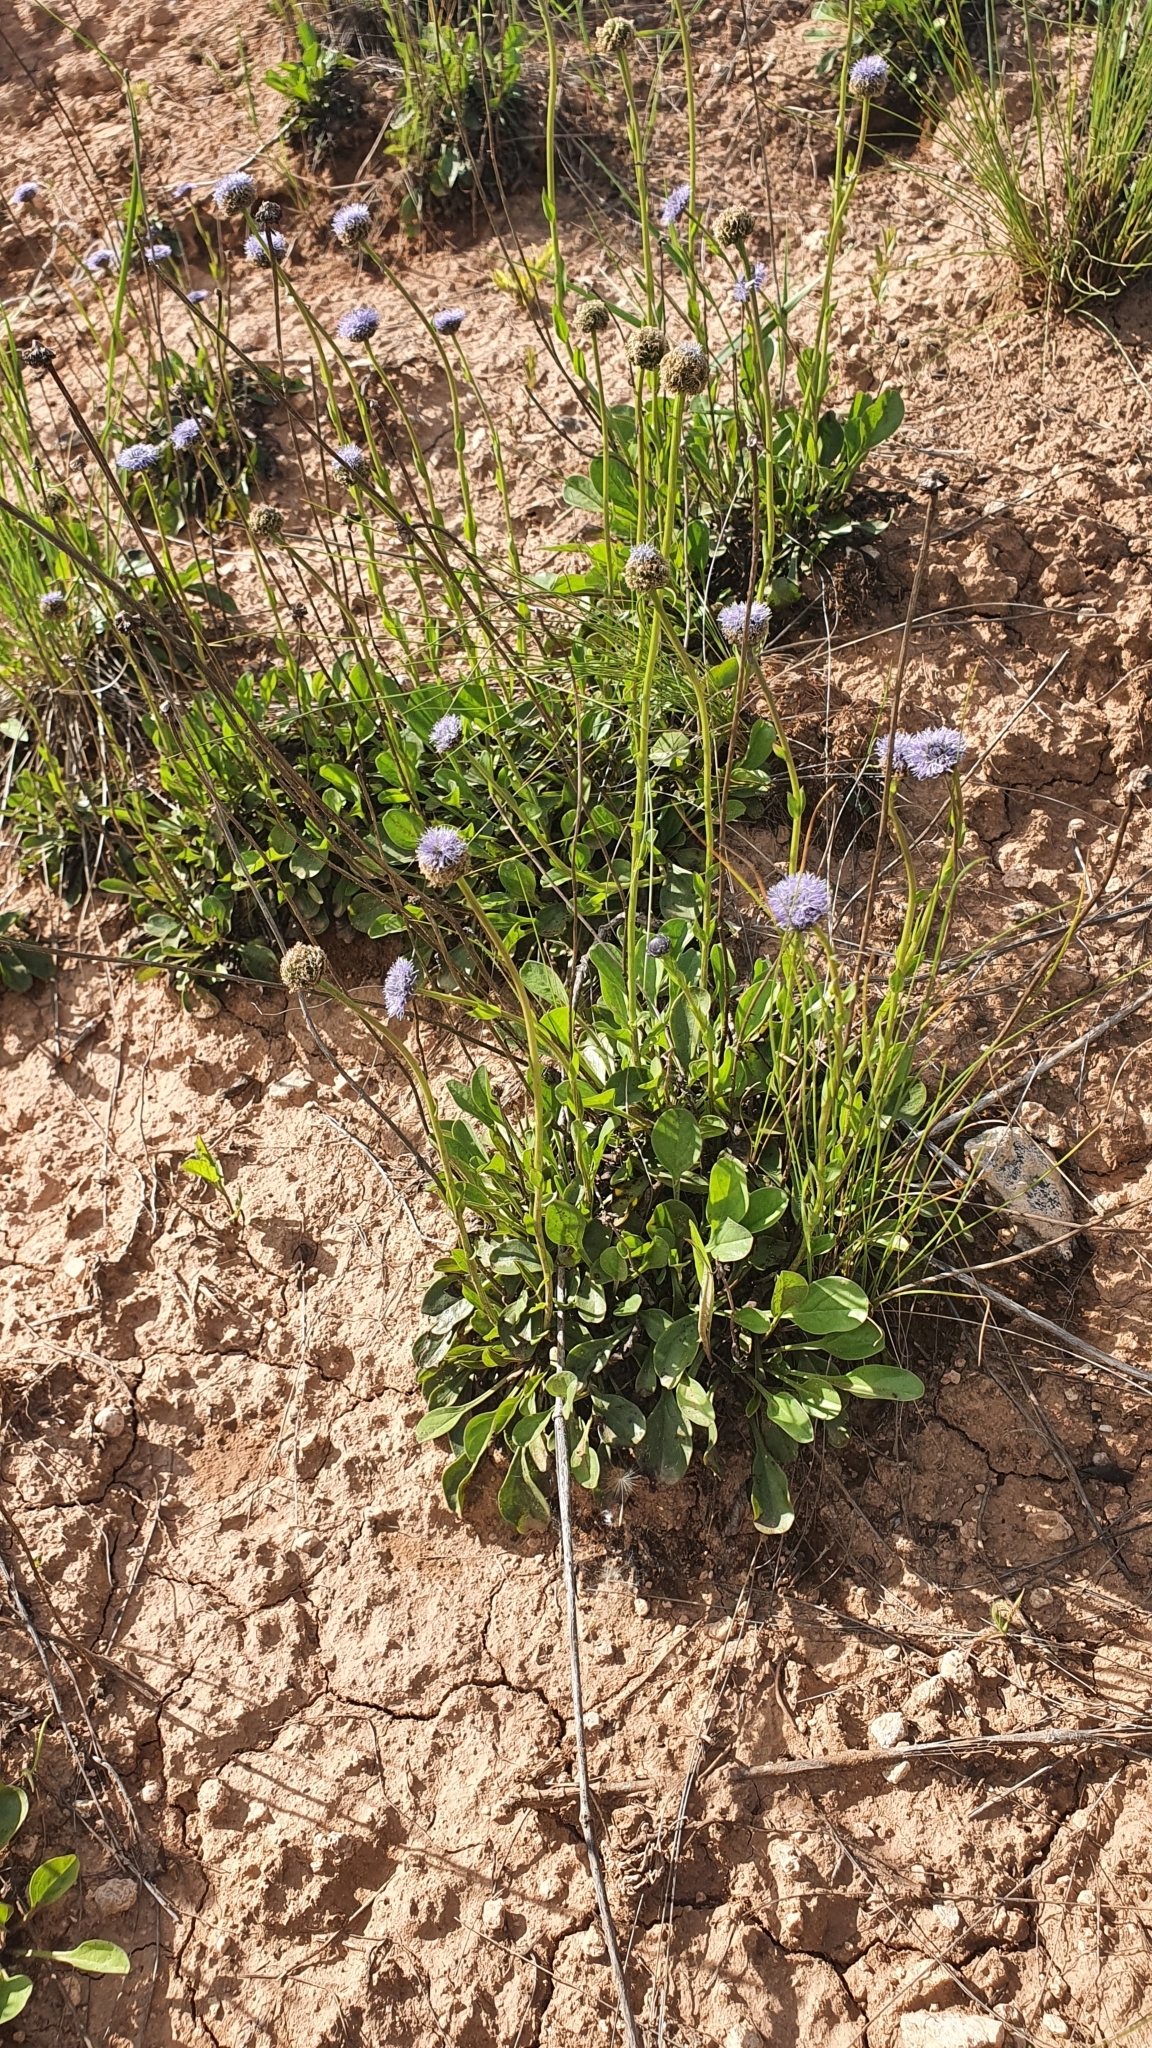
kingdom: Plantae
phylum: Tracheophyta
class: Magnoliopsida
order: Lamiales
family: Plantaginaceae
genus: Globularia
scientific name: Globularia bisnagarica
